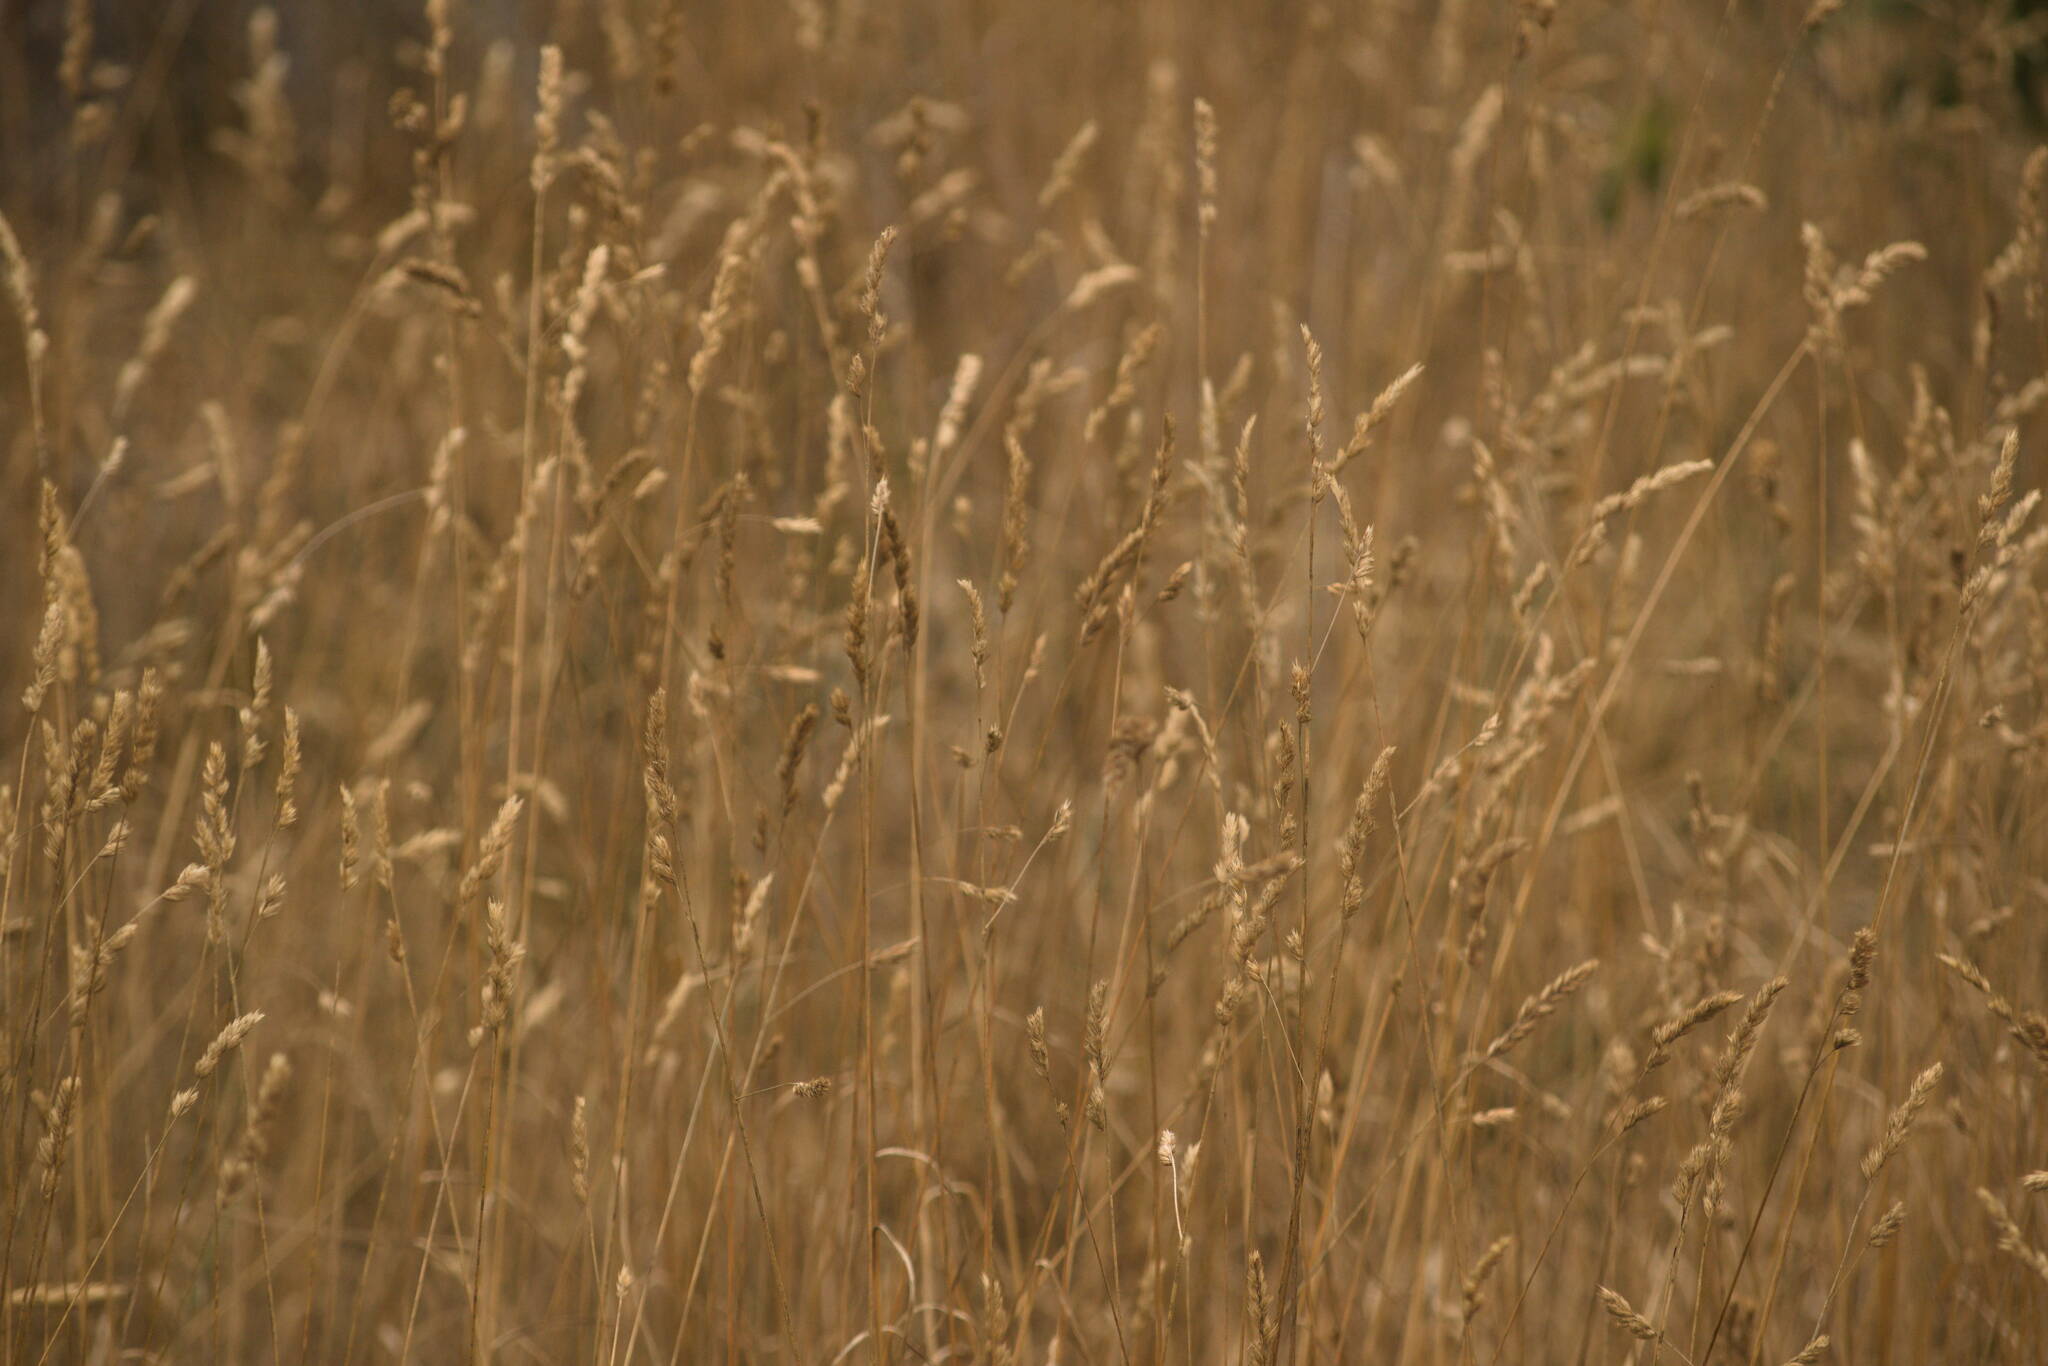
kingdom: Plantae
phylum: Tracheophyta
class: Liliopsida
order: Poales
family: Poaceae
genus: Dactylis
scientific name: Dactylis glomerata
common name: Orchardgrass
